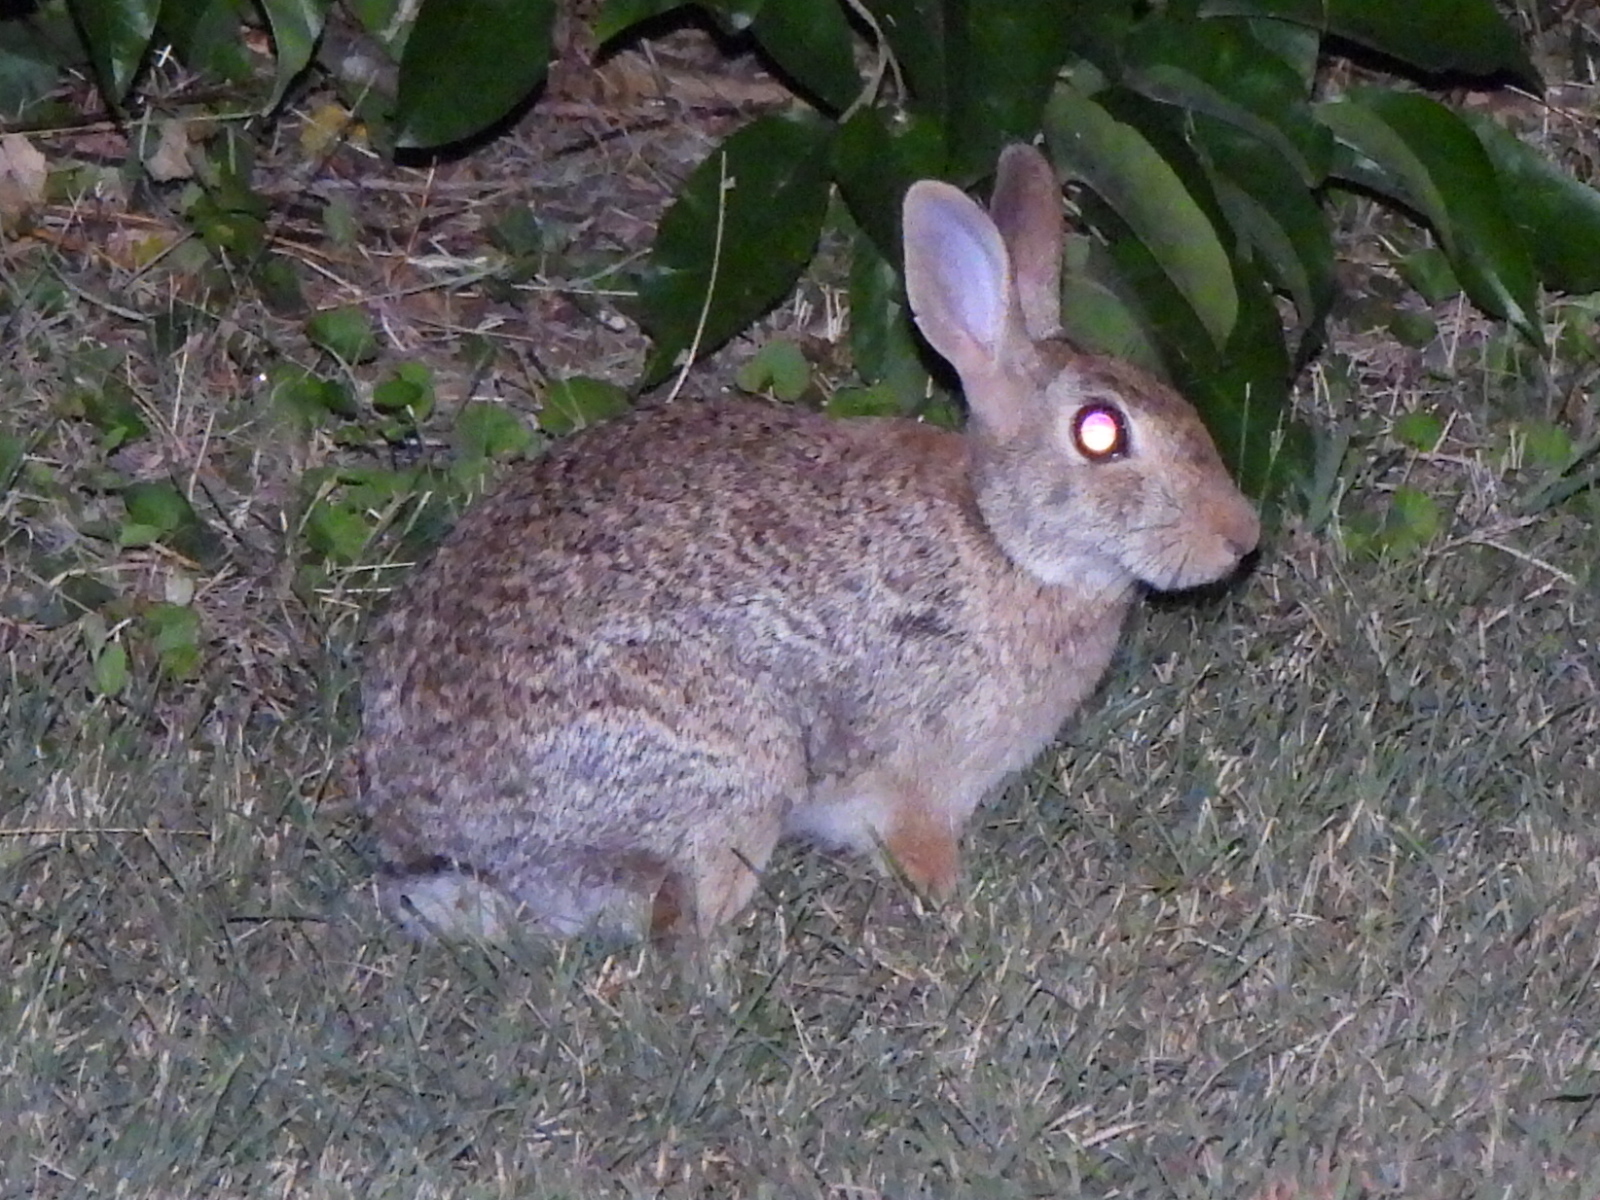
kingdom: Animalia
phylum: Chordata
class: Mammalia
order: Lagomorpha
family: Leporidae
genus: Sylvilagus
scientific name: Sylvilagus floridanus
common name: Eastern cottontail
